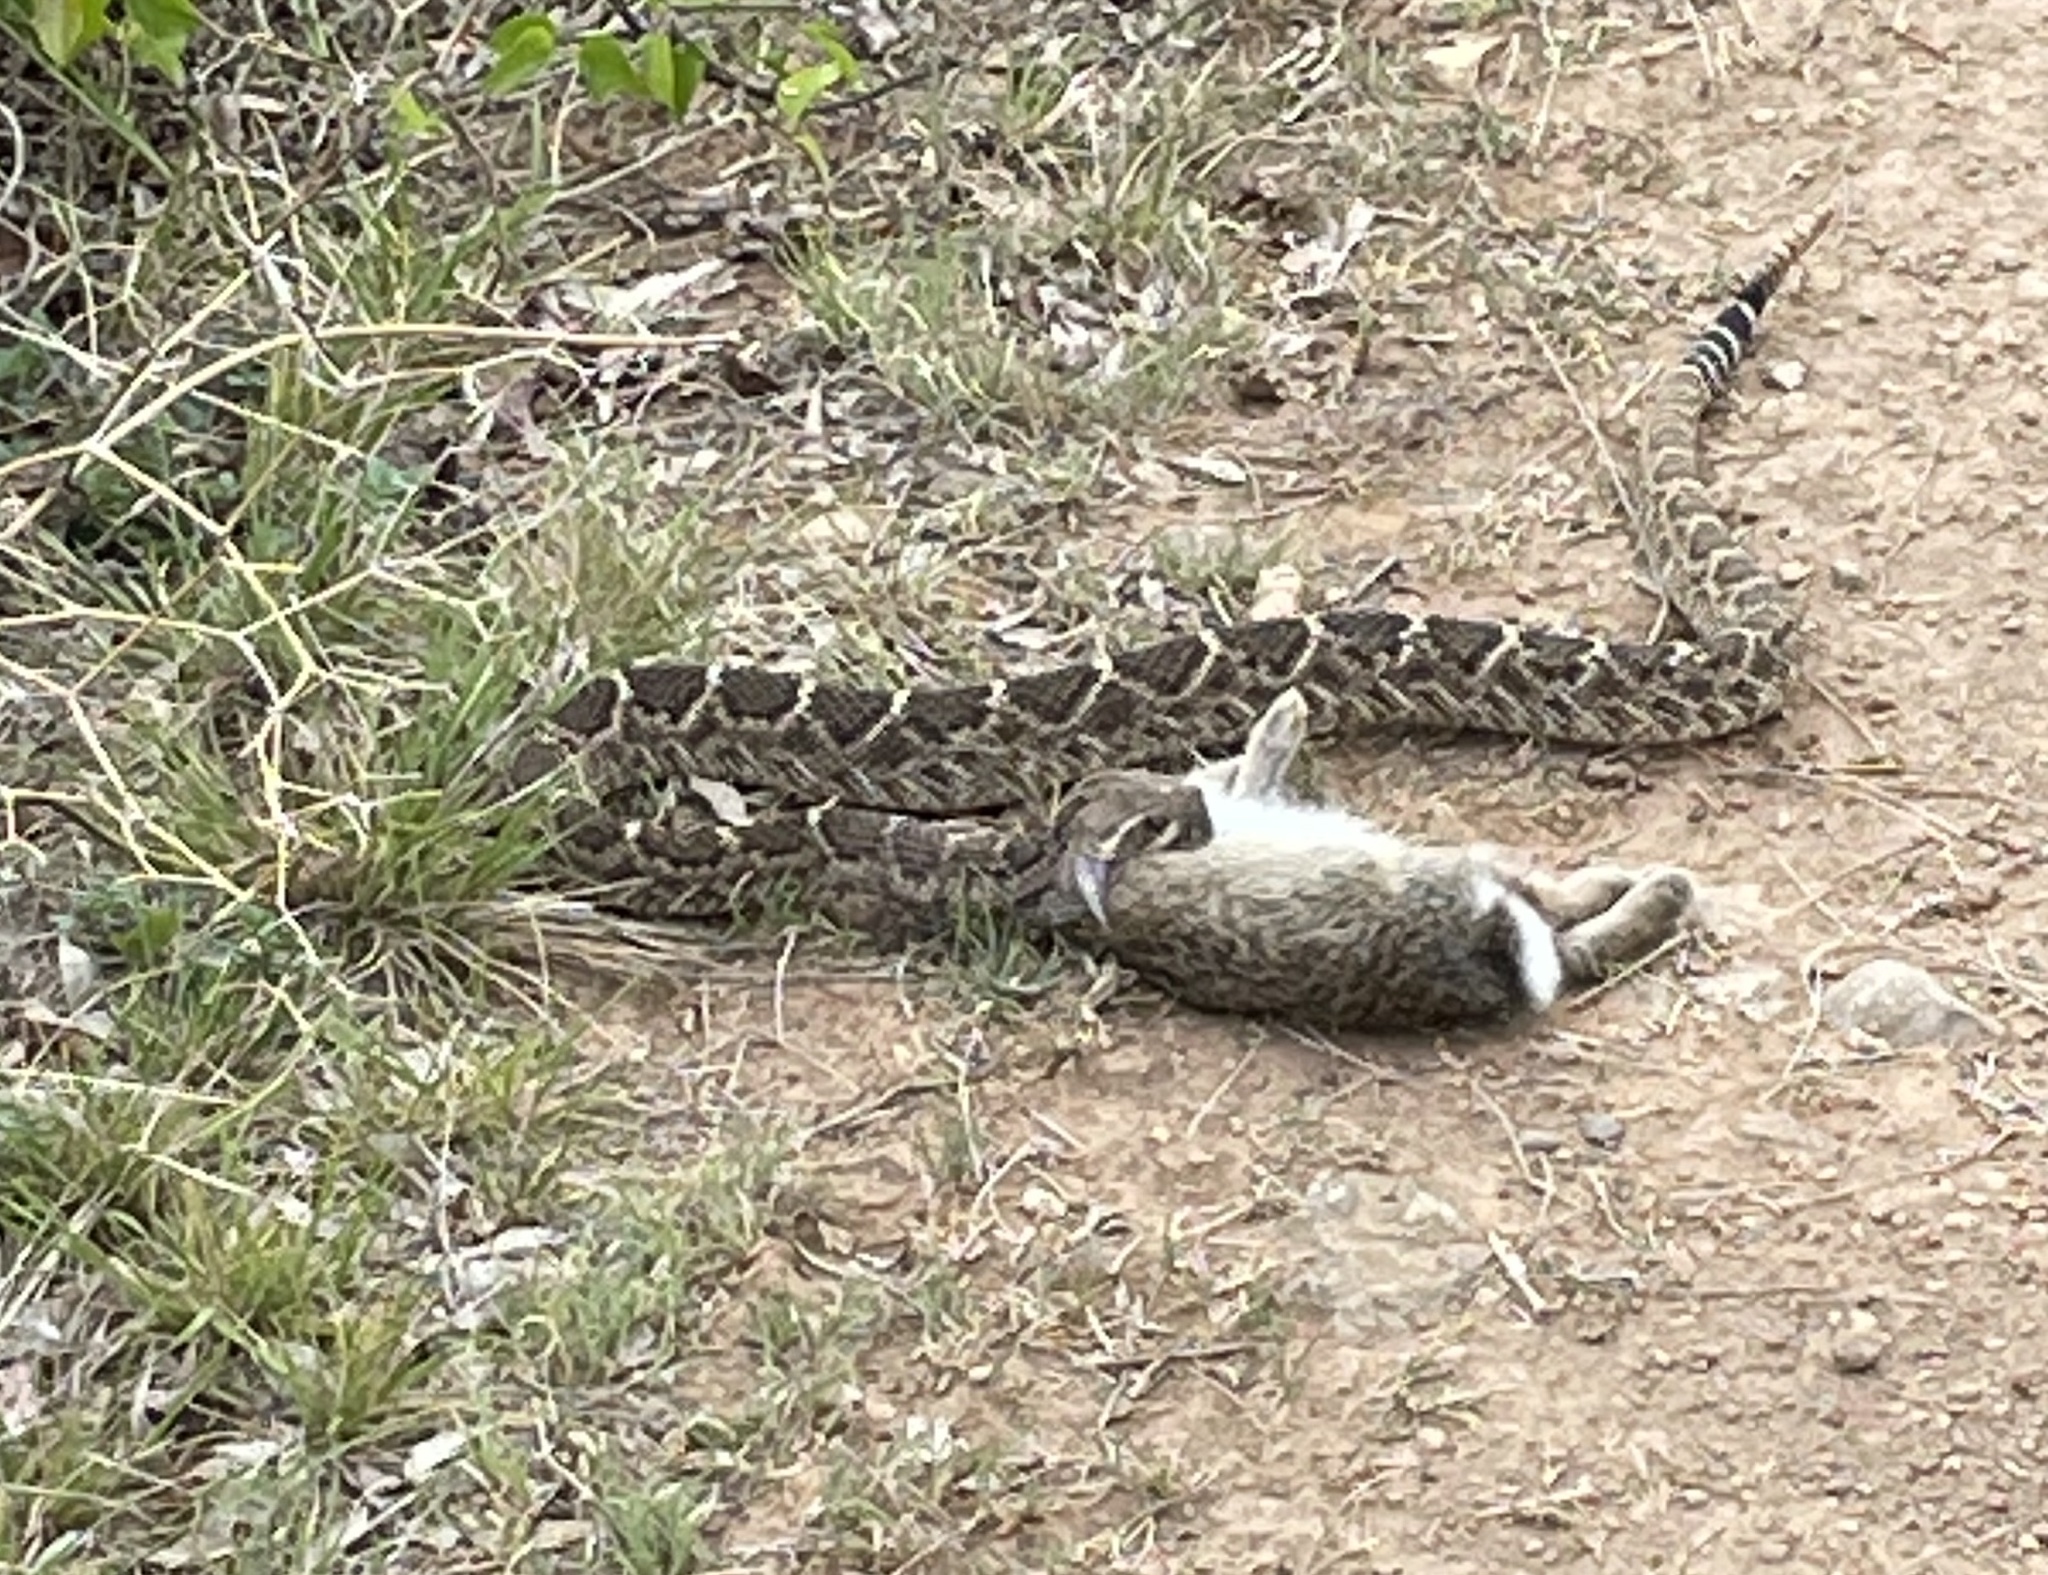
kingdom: Animalia
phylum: Chordata
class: Squamata
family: Viperidae
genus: Crotalus
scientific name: Crotalus atrox
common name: Western diamond-backed rattlesnake
